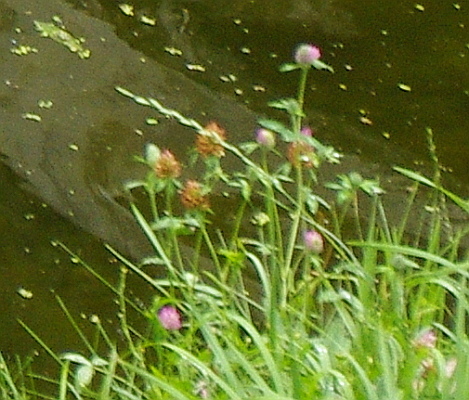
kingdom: Plantae
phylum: Tracheophyta
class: Magnoliopsida
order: Fabales
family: Fabaceae
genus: Trifolium
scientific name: Trifolium pratense
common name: Red clover
